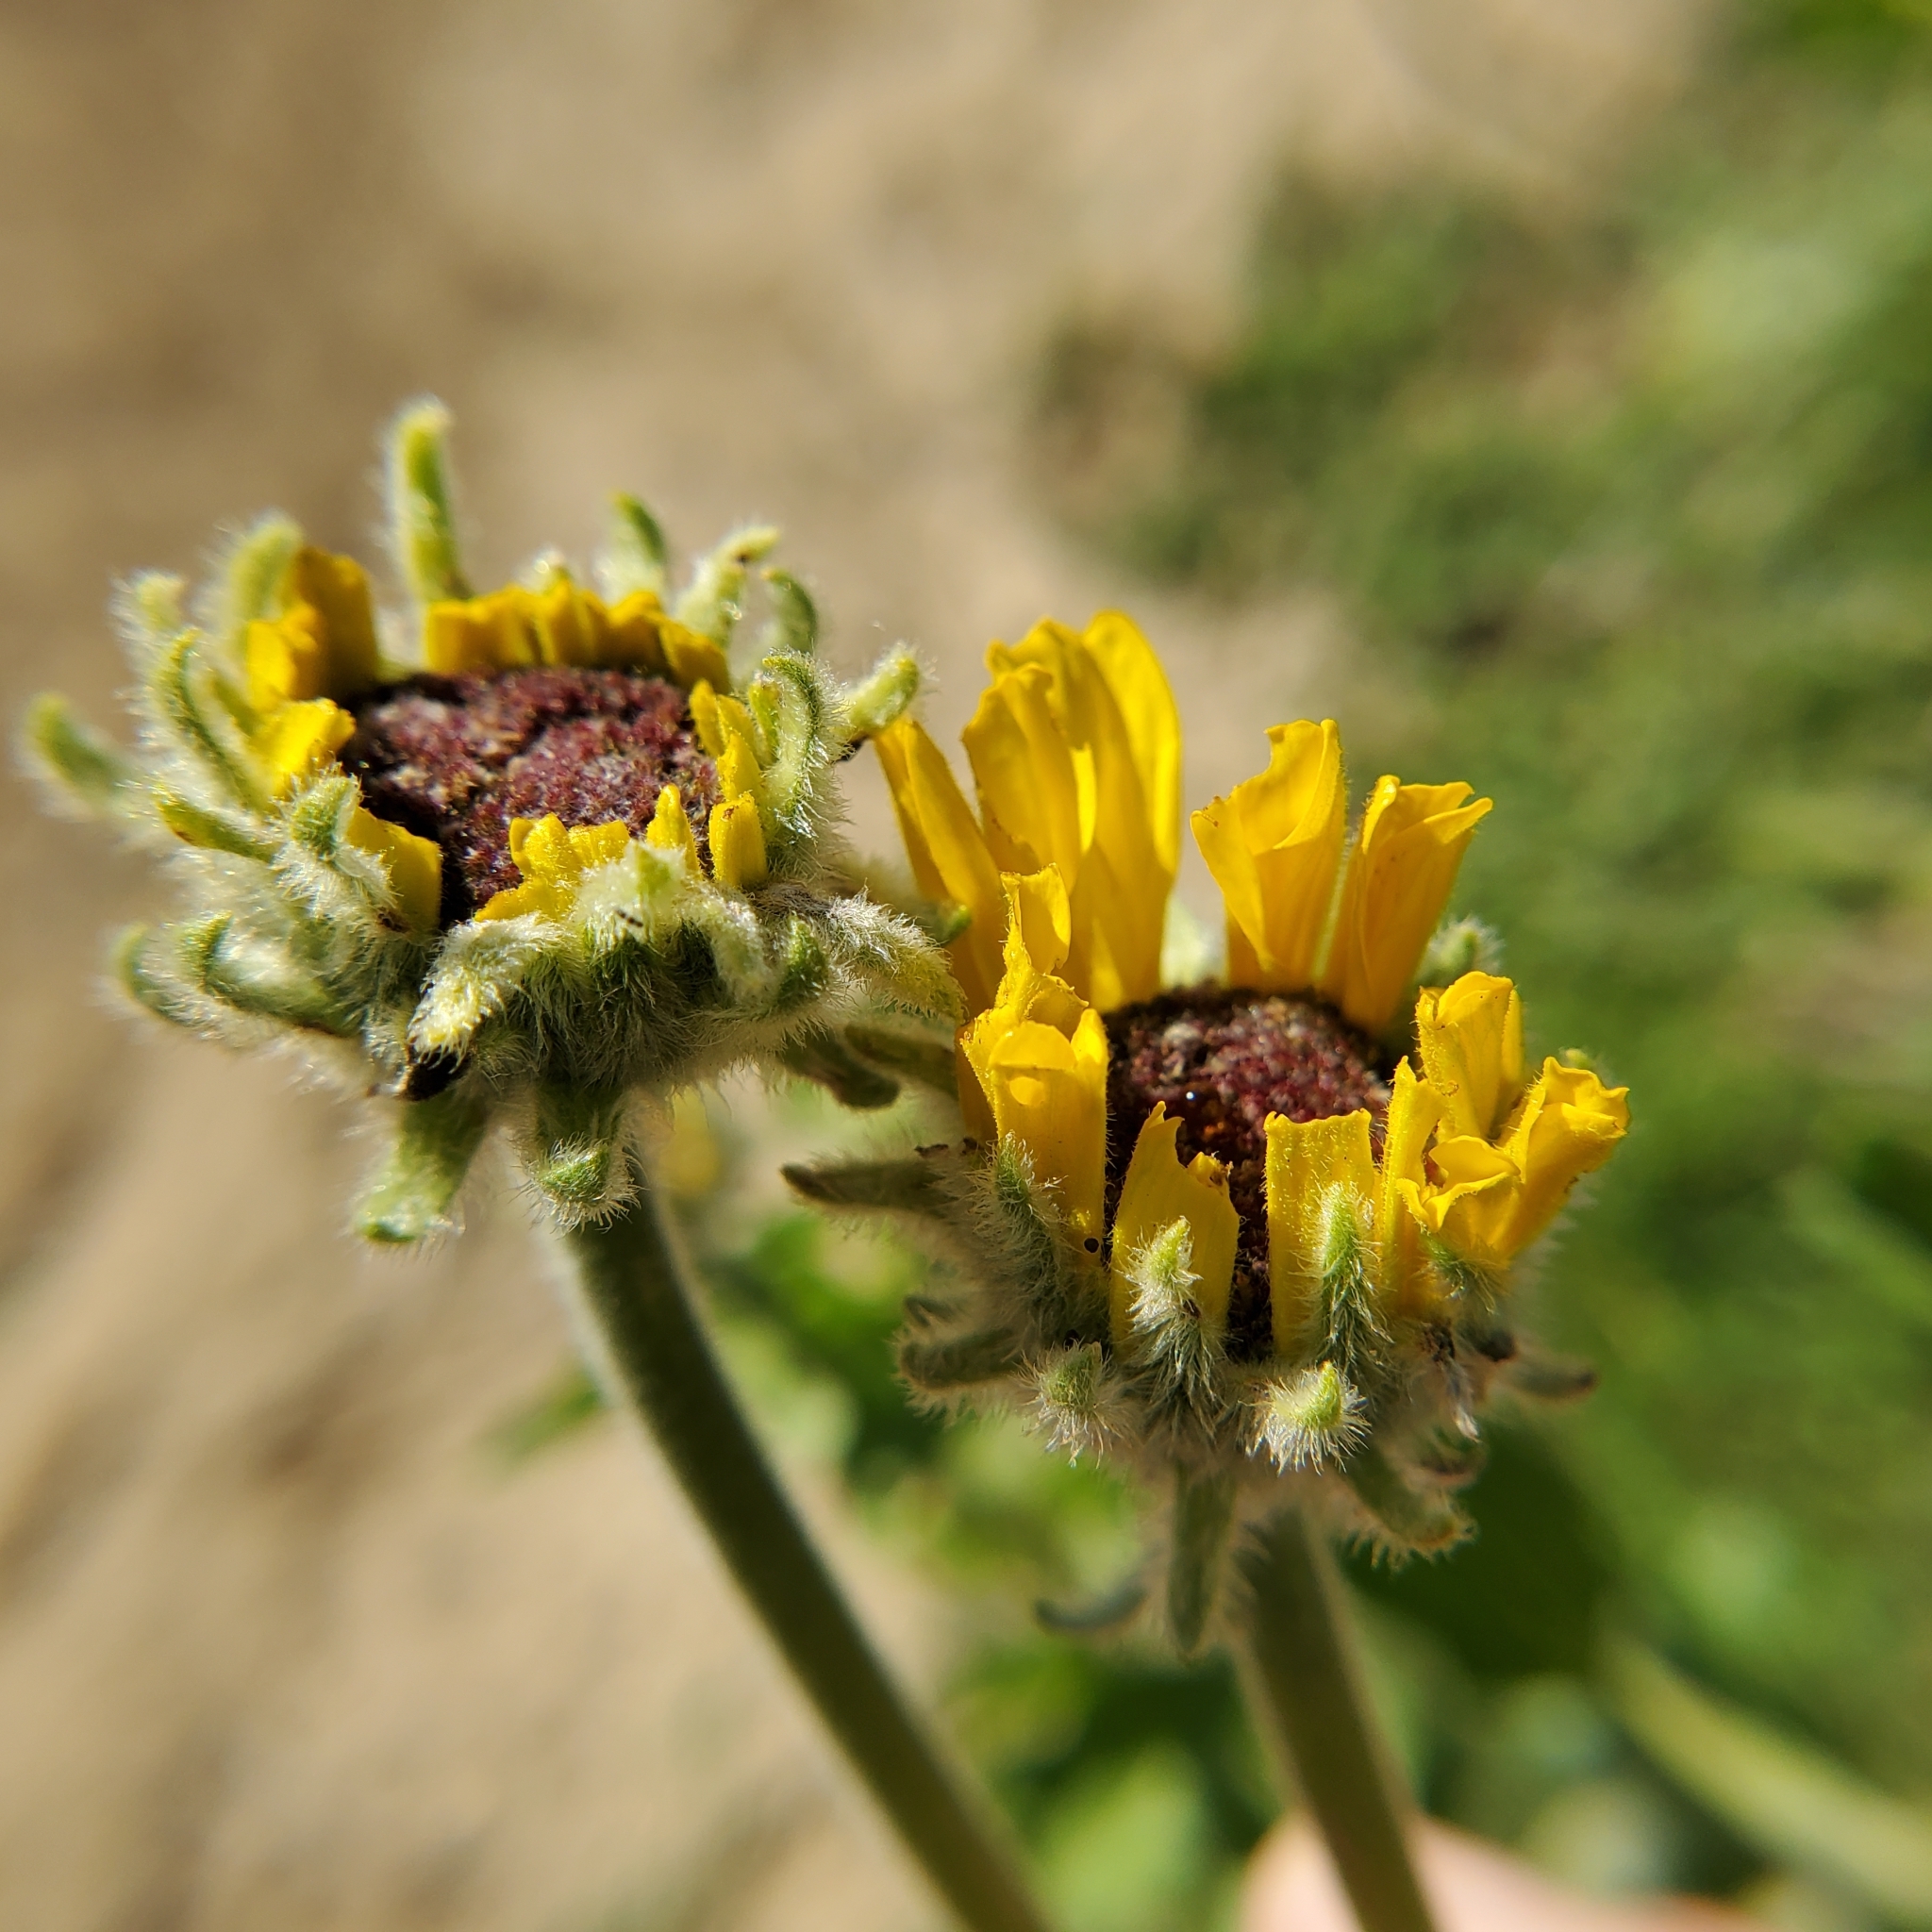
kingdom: Plantae
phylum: Tracheophyta
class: Magnoliopsida
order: Asterales
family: Asteraceae
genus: Encelia
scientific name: Encelia californica
